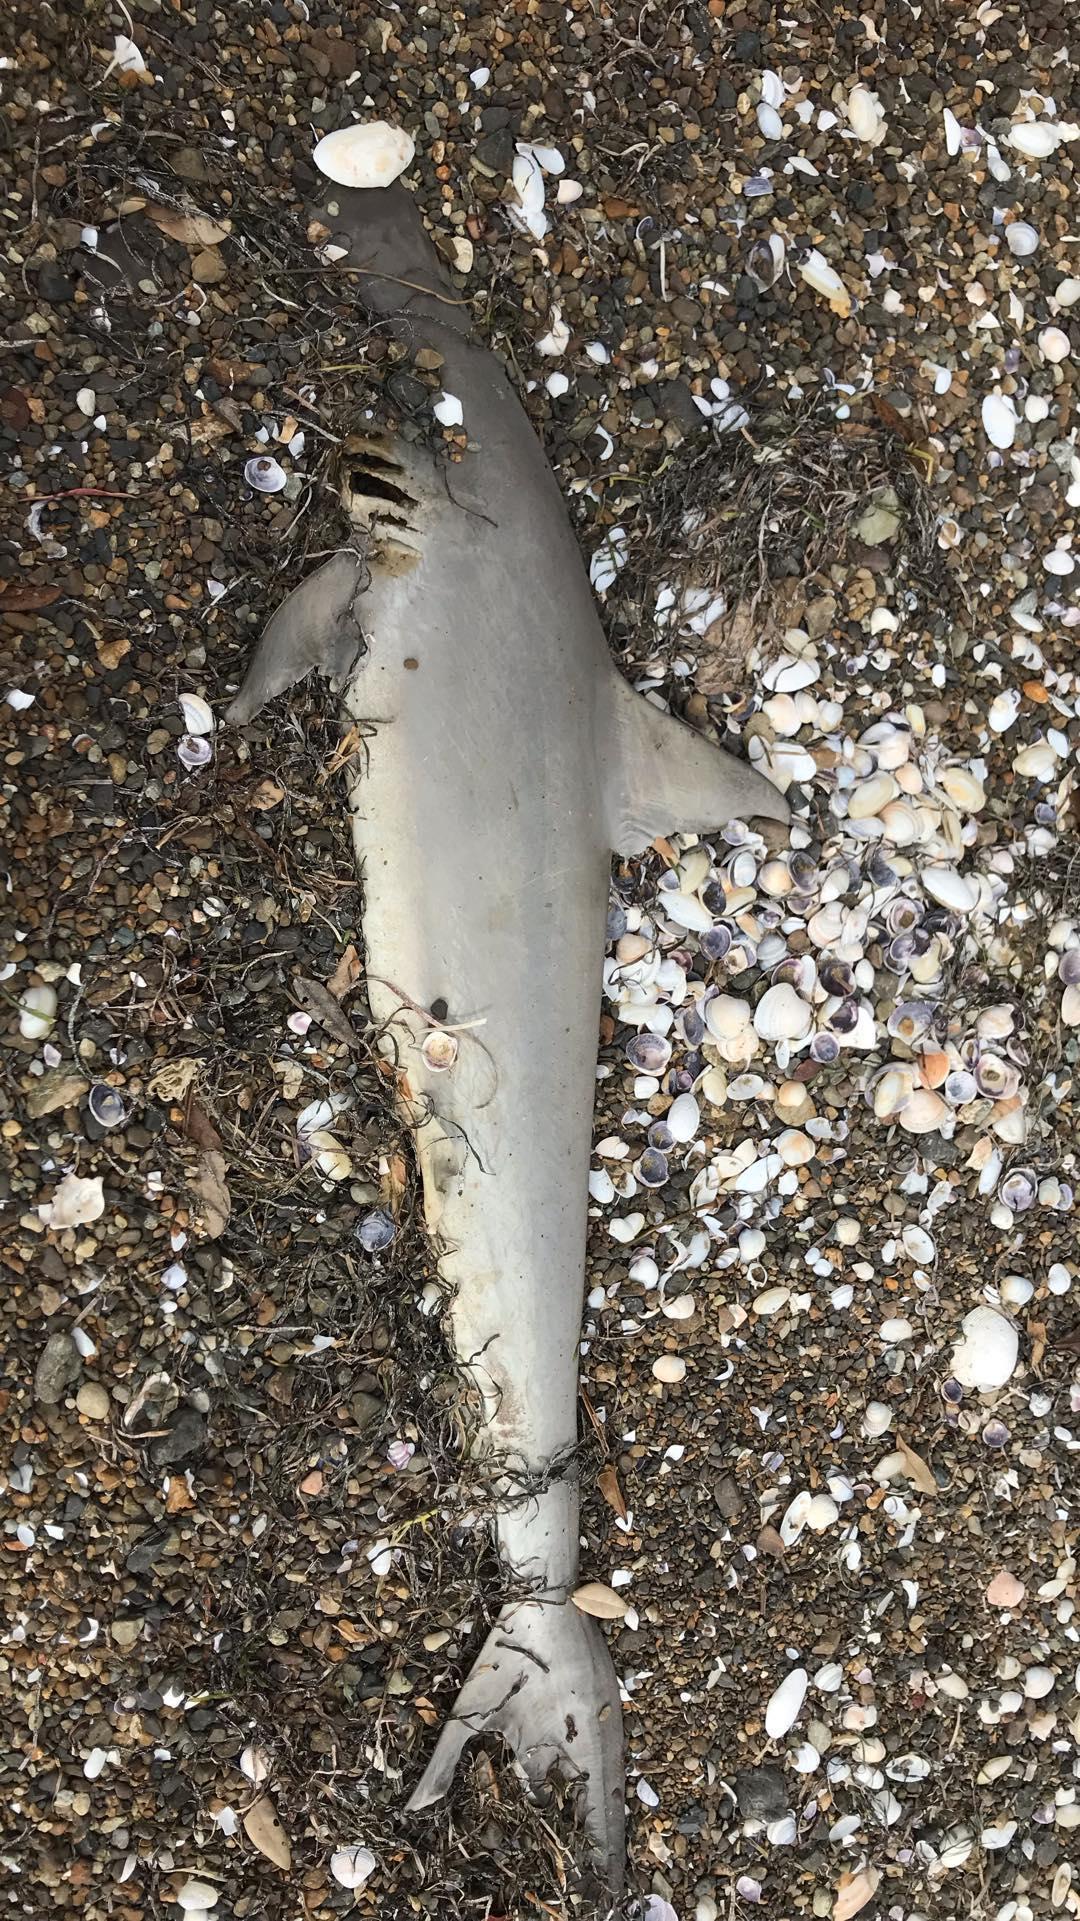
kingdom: Animalia
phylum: Chordata
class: Elasmobranchii
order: Carcharhiniformes
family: Sphyrnidae
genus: Sphyrna
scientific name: Sphyrna zygaena
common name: Smooth hammerhead
